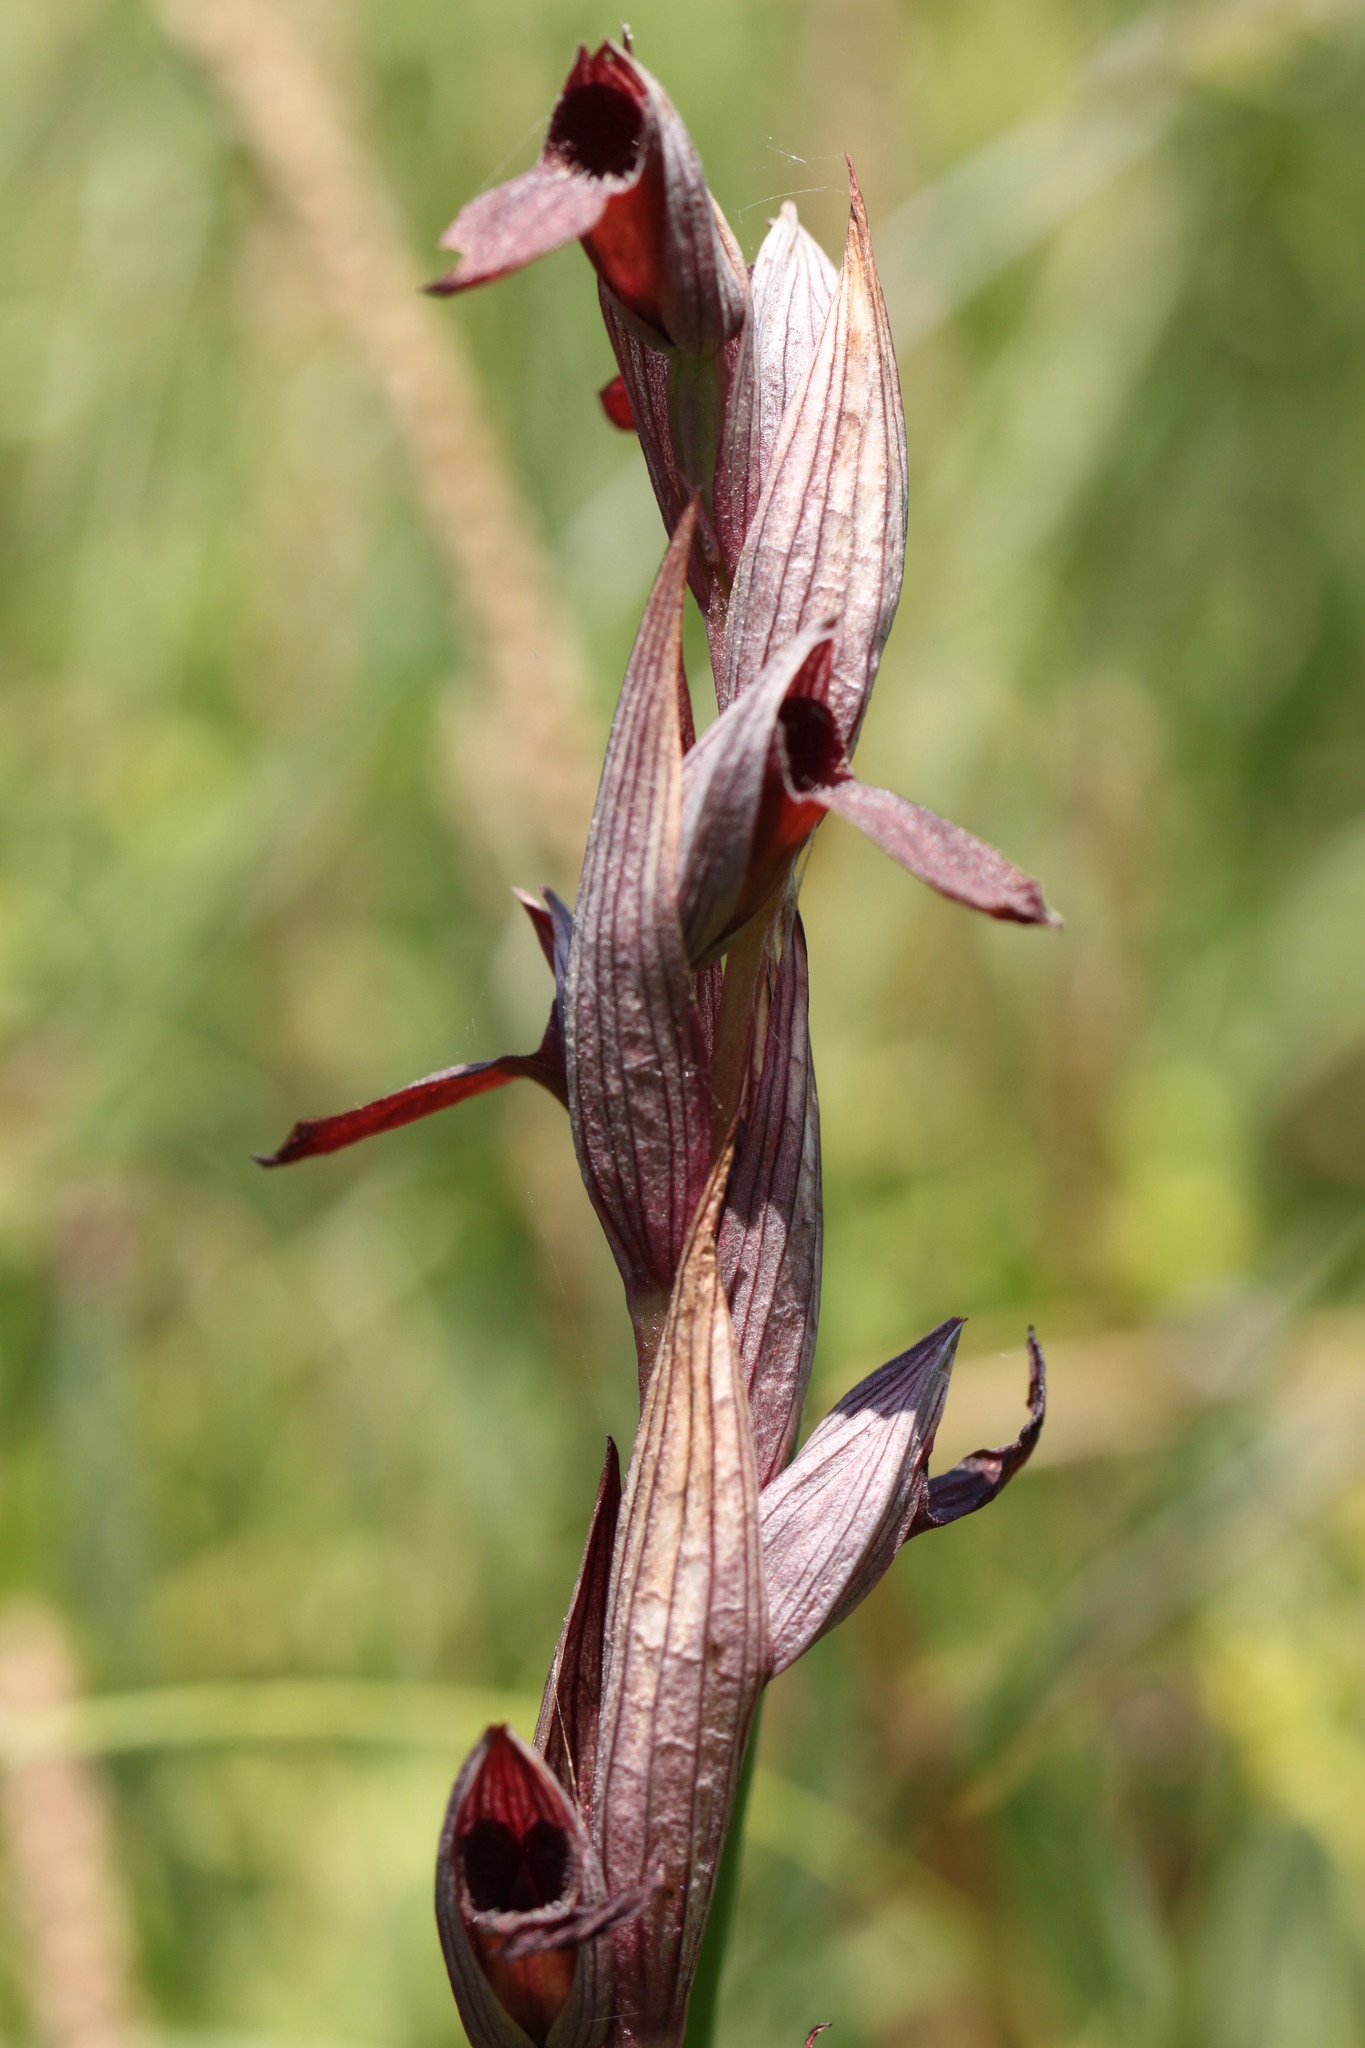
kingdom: Plantae
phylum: Tracheophyta
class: Liliopsida
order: Asparagales
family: Orchidaceae
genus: Serapias
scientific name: Serapias bergonii
